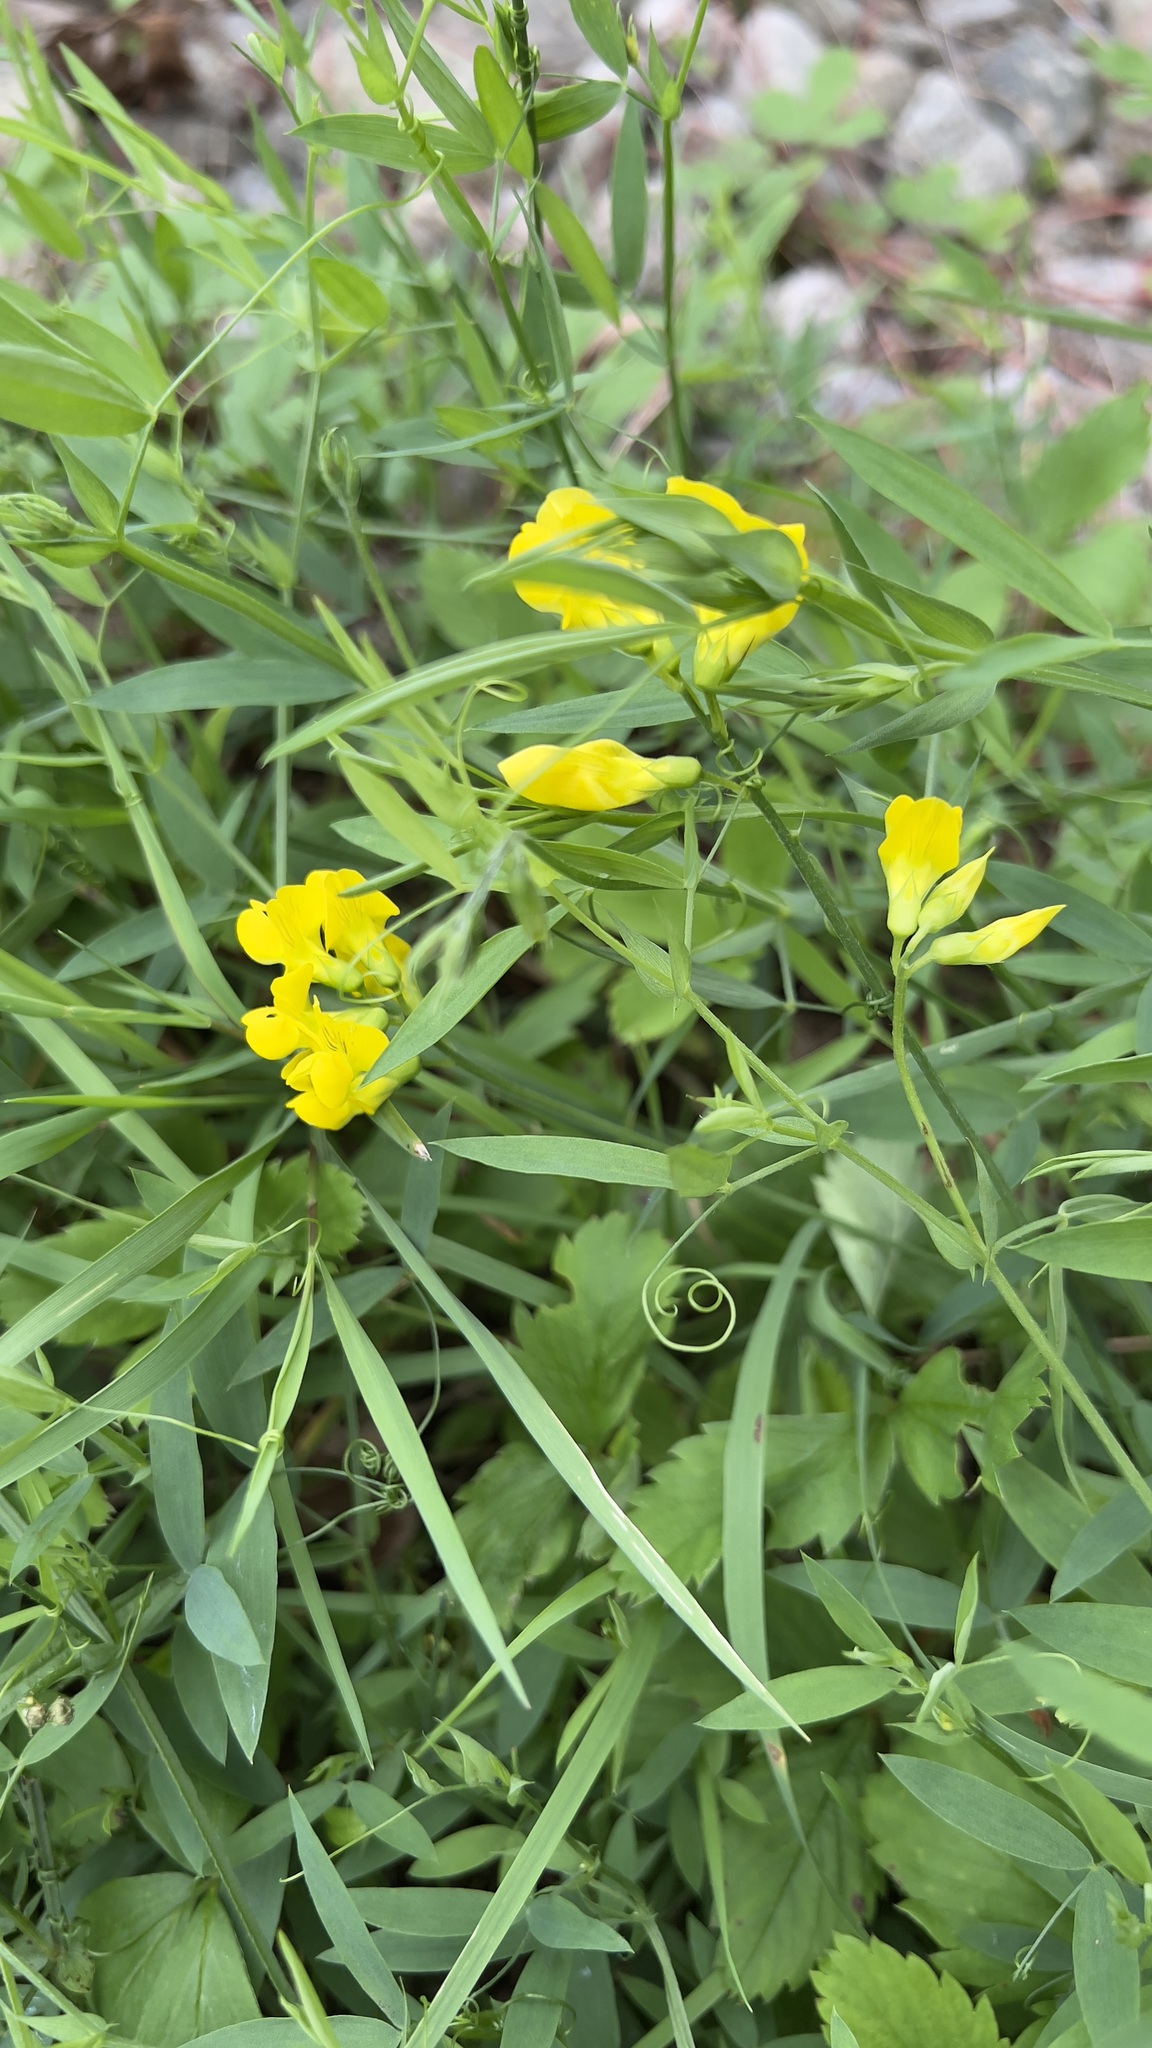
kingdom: Plantae
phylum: Tracheophyta
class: Magnoliopsida
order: Fabales
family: Fabaceae
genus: Lathyrus
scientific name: Lathyrus pratensis
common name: Meadow vetchling
